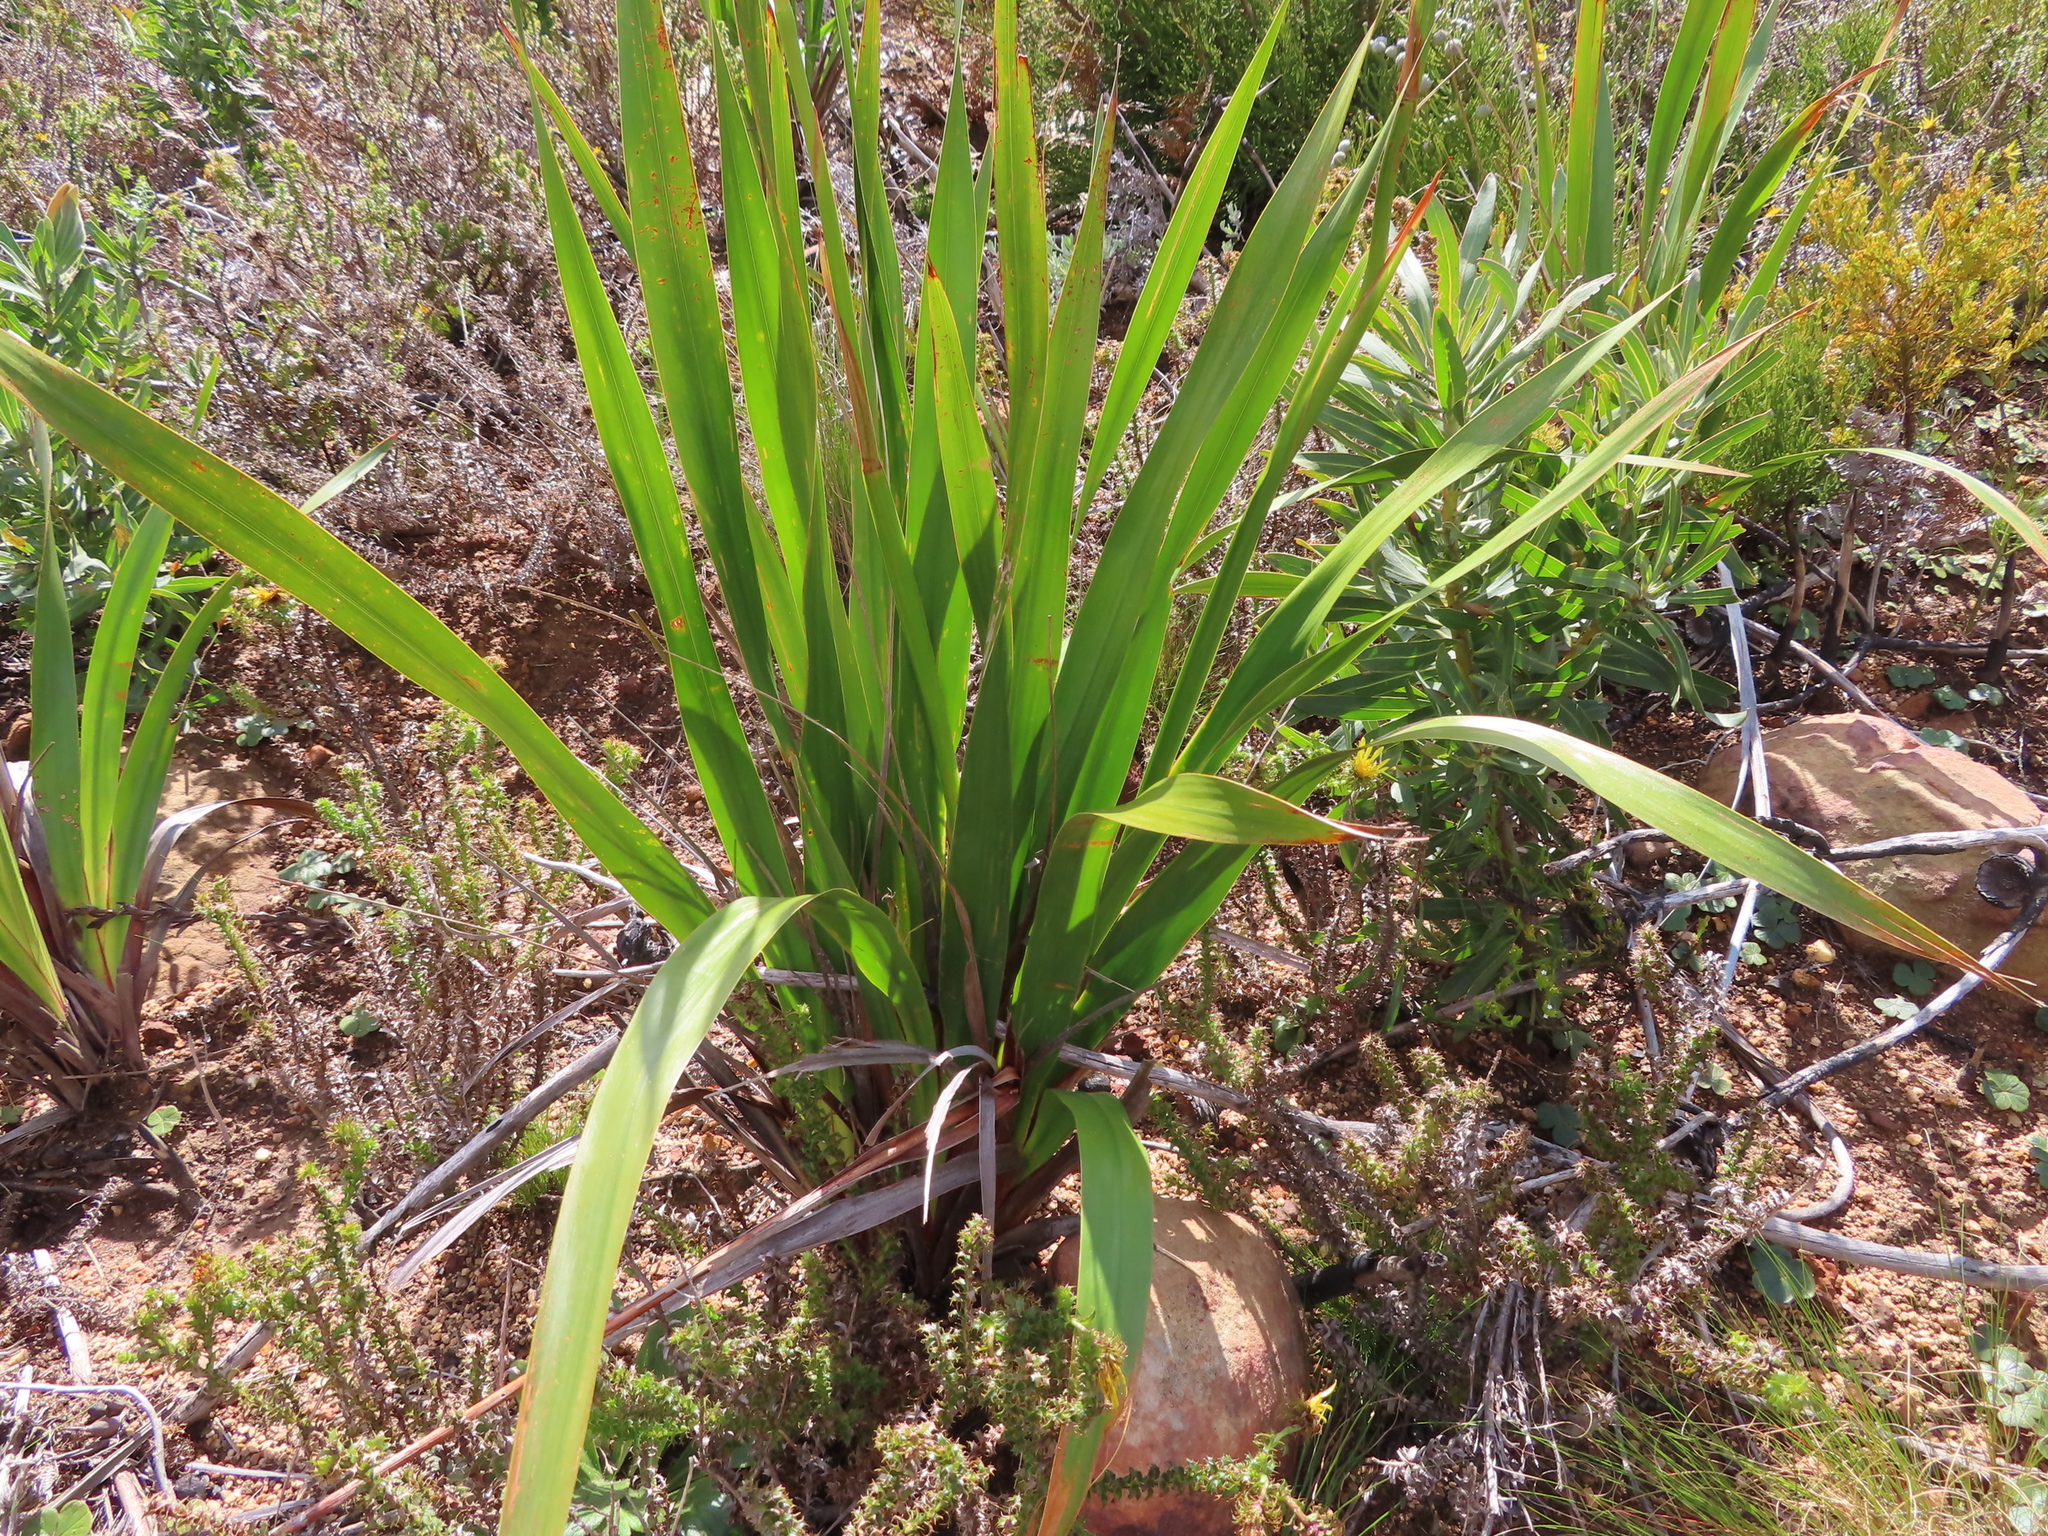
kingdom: Plantae
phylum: Tracheophyta
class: Liliopsida
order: Asparagales
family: Iridaceae
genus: Watsonia
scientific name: Watsonia borbonica
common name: Bugle-lily
